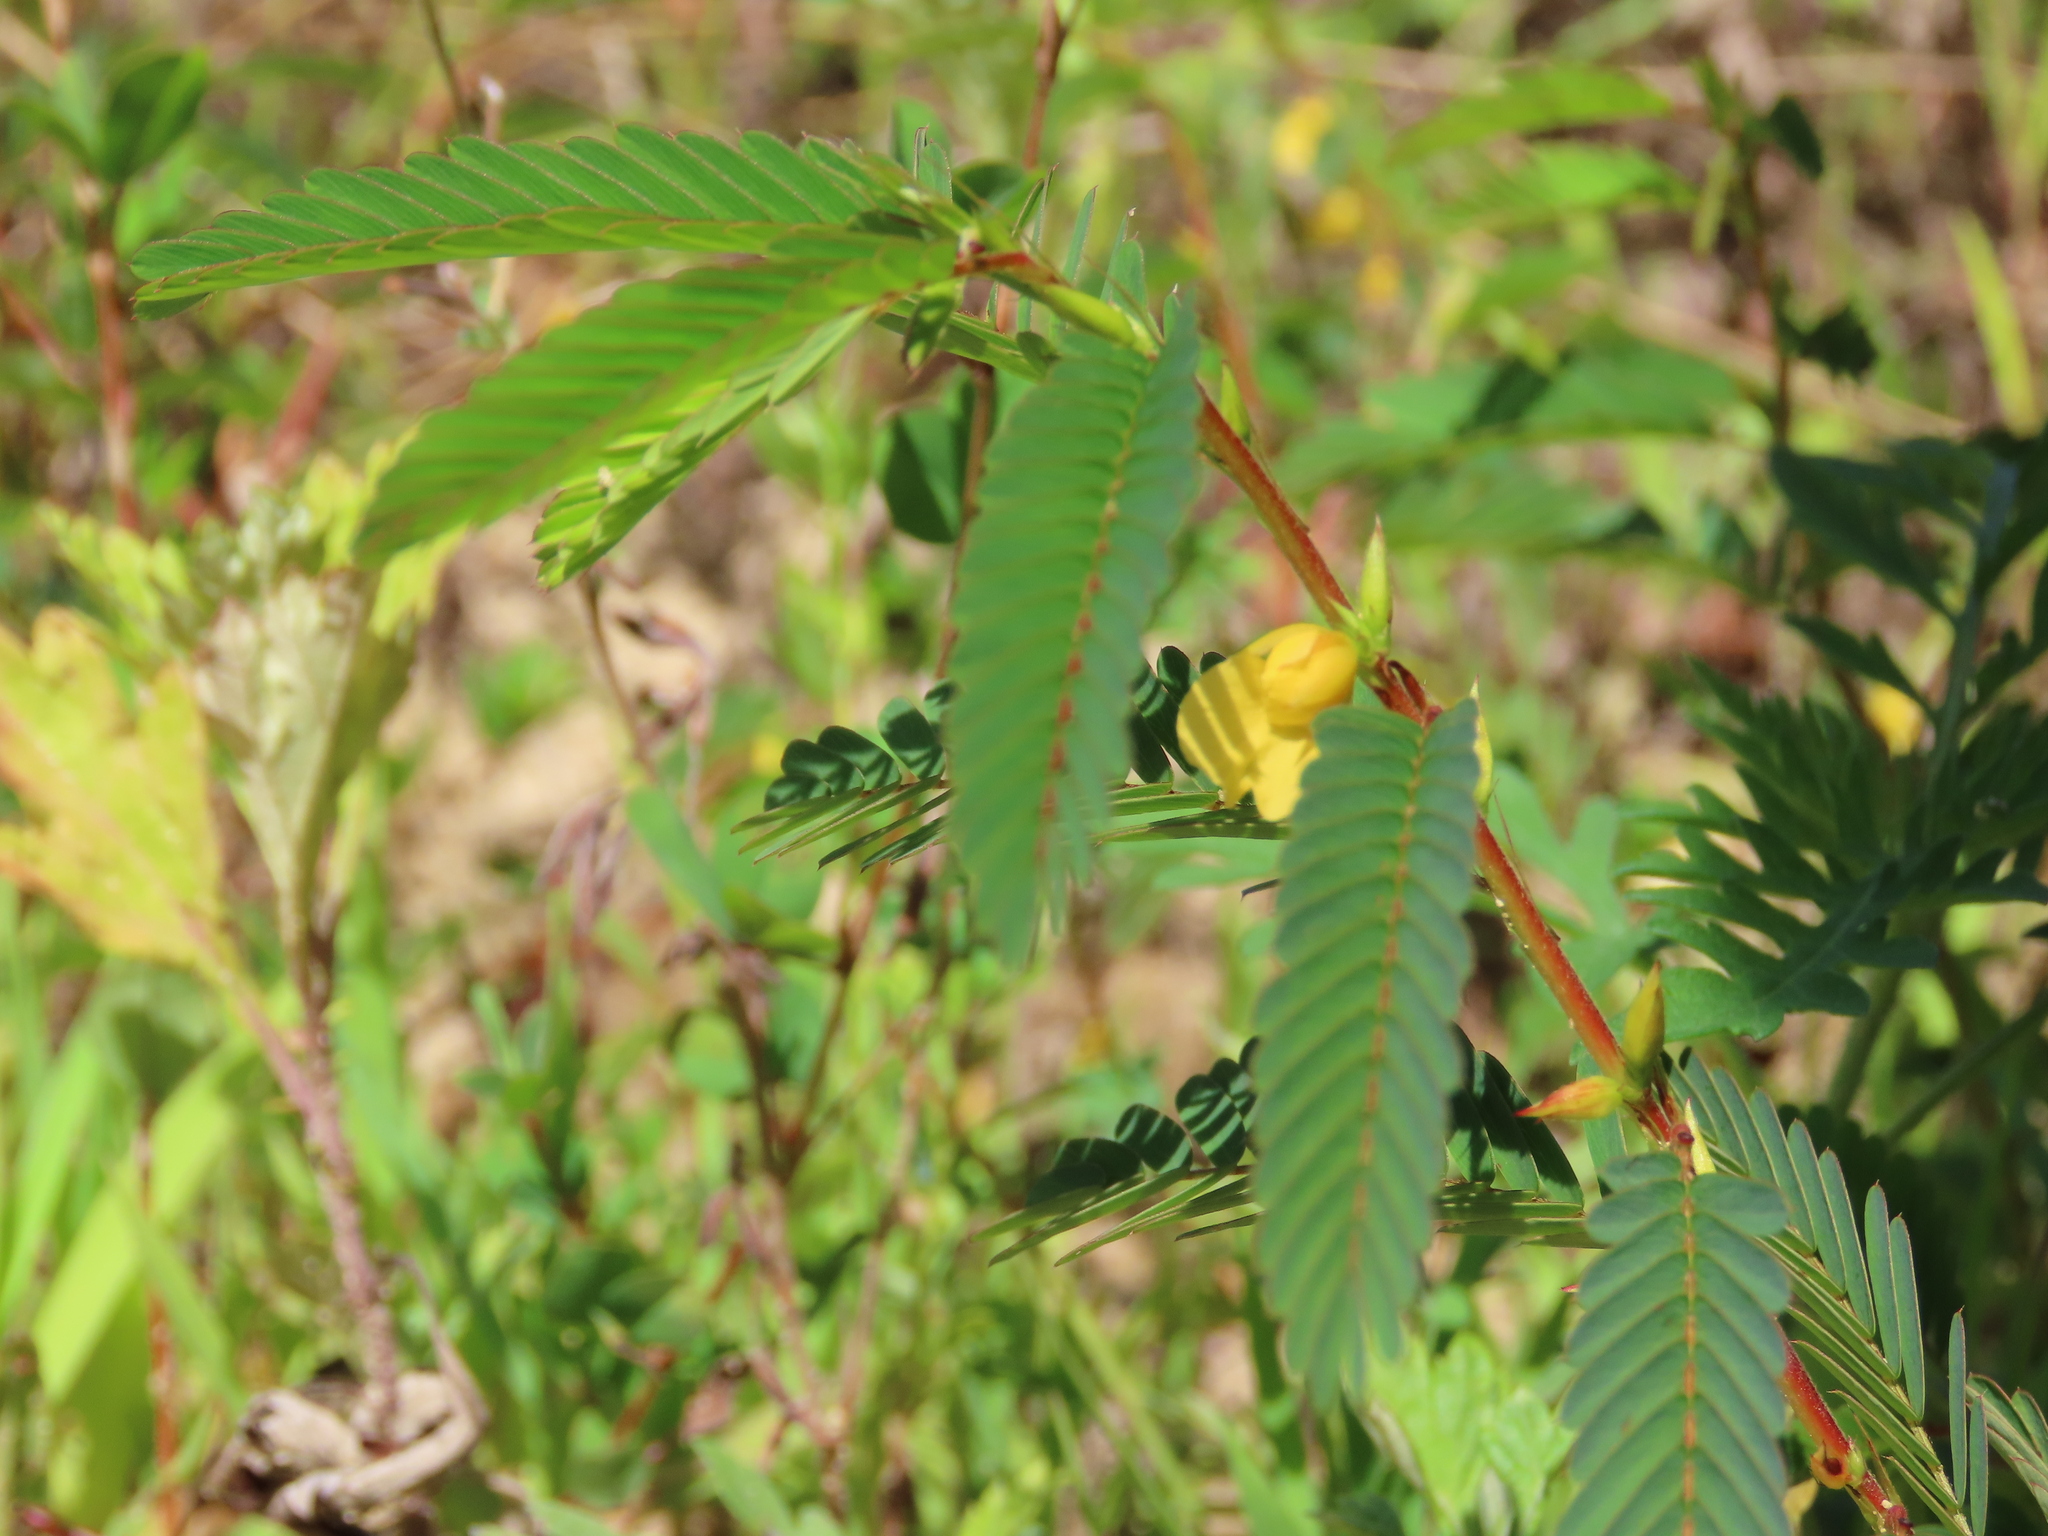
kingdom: Plantae
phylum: Tracheophyta
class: Magnoliopsida
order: Fabales
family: Fabaceae
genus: Chamaecrista
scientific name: Chamaecrista nictitans
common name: Sensitive cassia
